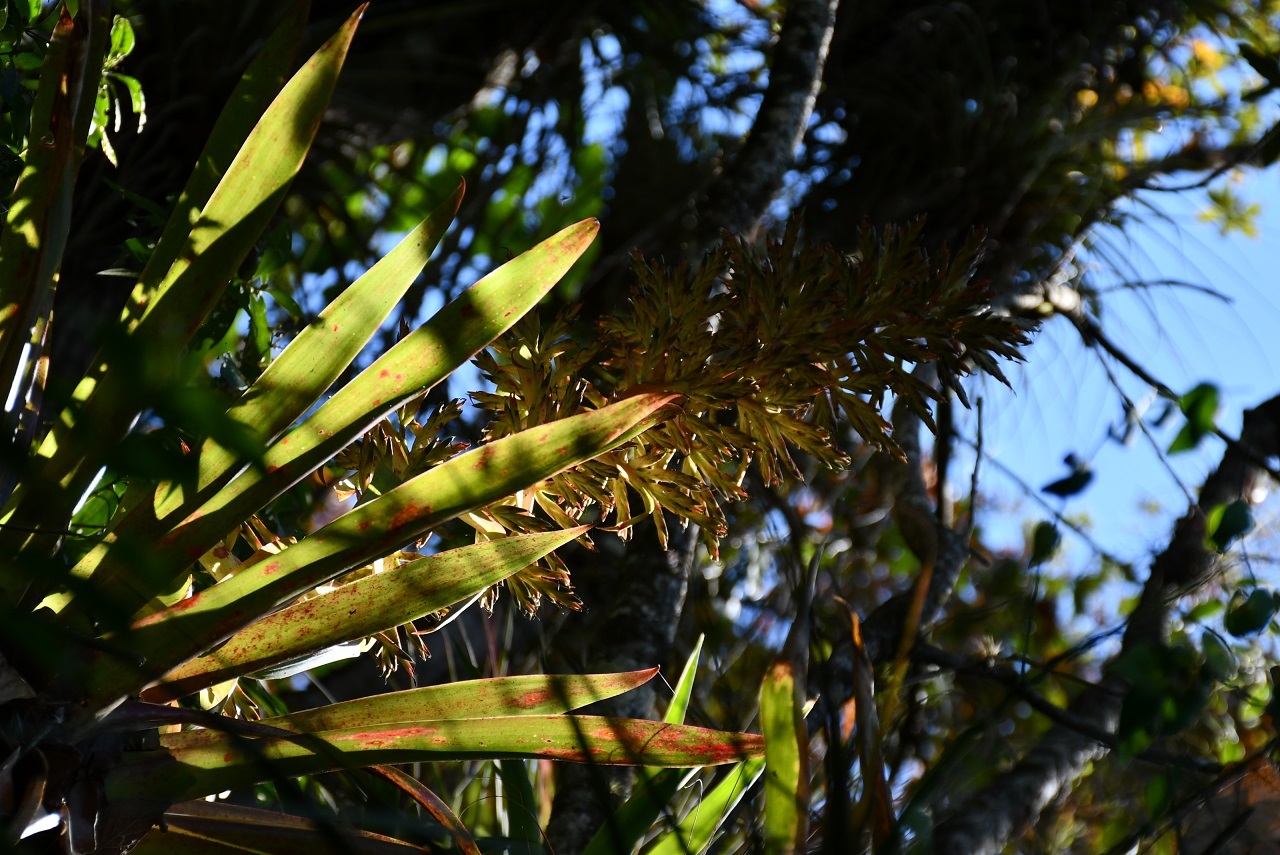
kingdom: Plantae
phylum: Tracheophyta
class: Liliopsida
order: Poales
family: Bromeliaceae
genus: Tillandsia
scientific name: Tillandsia excelsa
